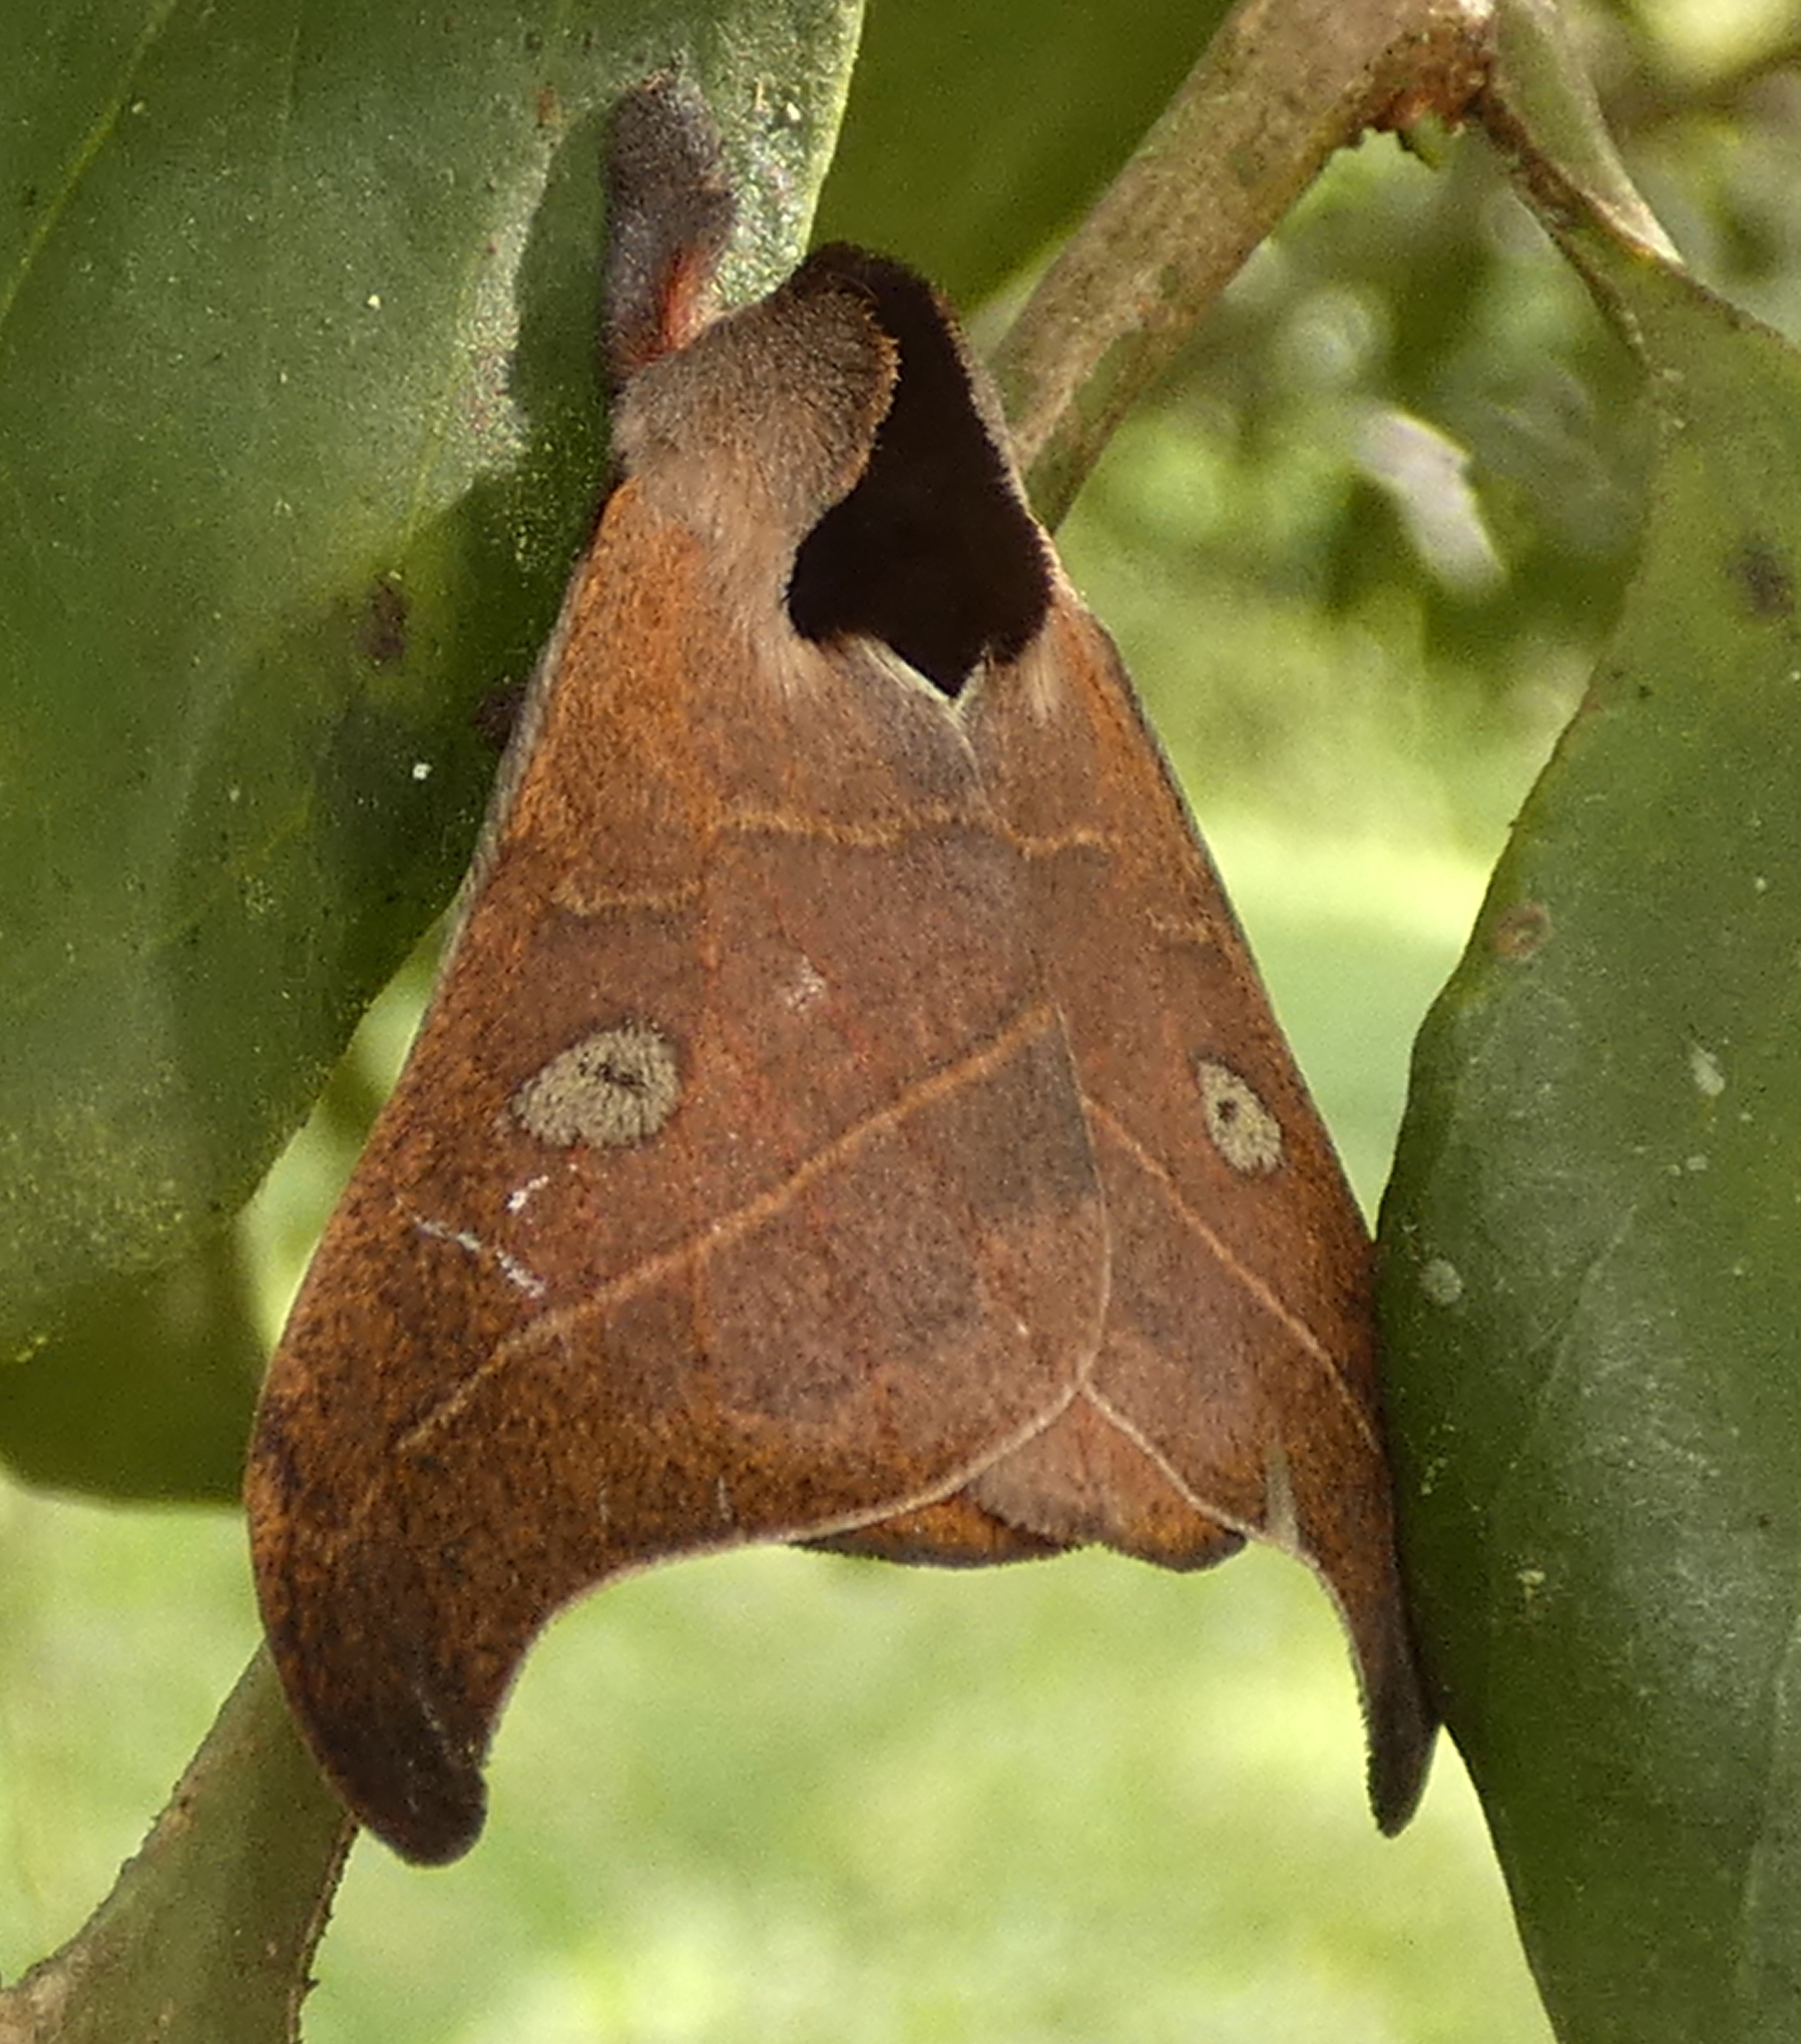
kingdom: Animalia
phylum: Arthropoda
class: Insecta
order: Lepidoptera
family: Saturniidae
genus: Hylesia
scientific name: Hylesia nanus
